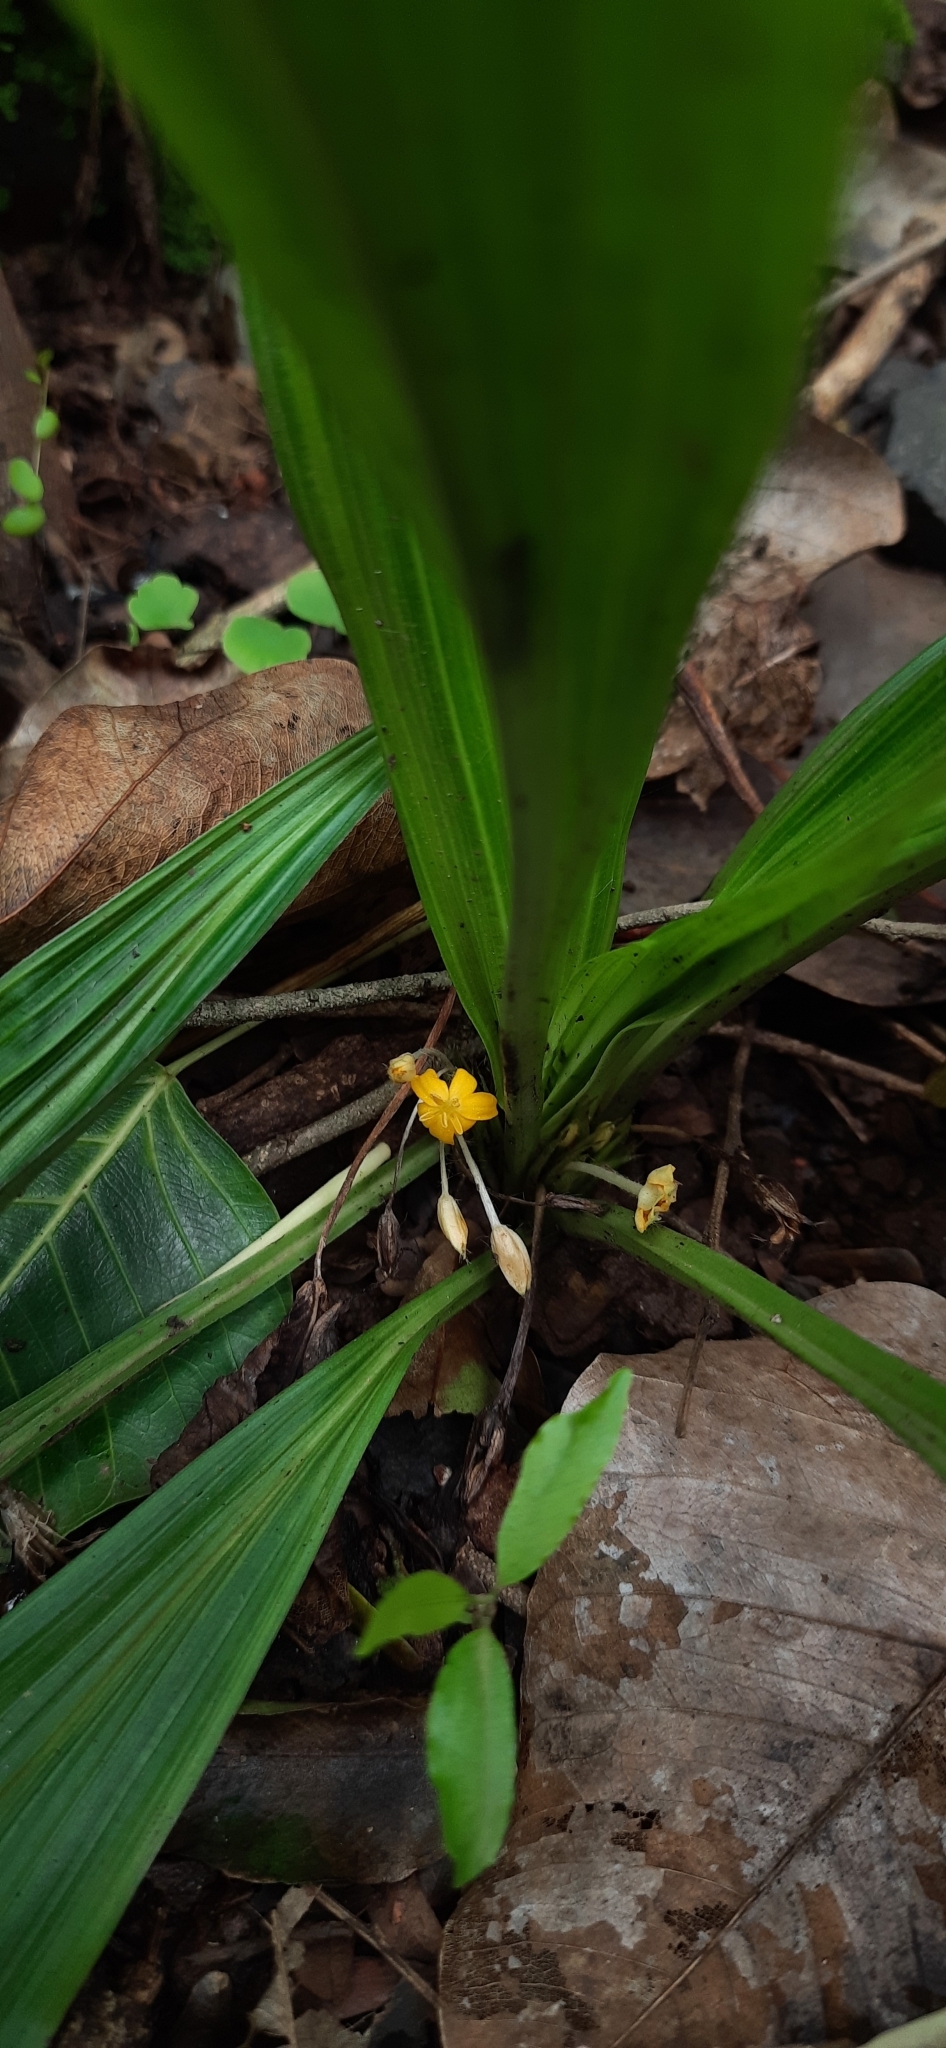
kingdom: Plantae
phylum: Tracheophyta
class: Liliopsida
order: Asparagales
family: Hypoxidaceae
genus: Curculigo
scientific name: Curculigo orchioides
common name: Golden eye-grass
